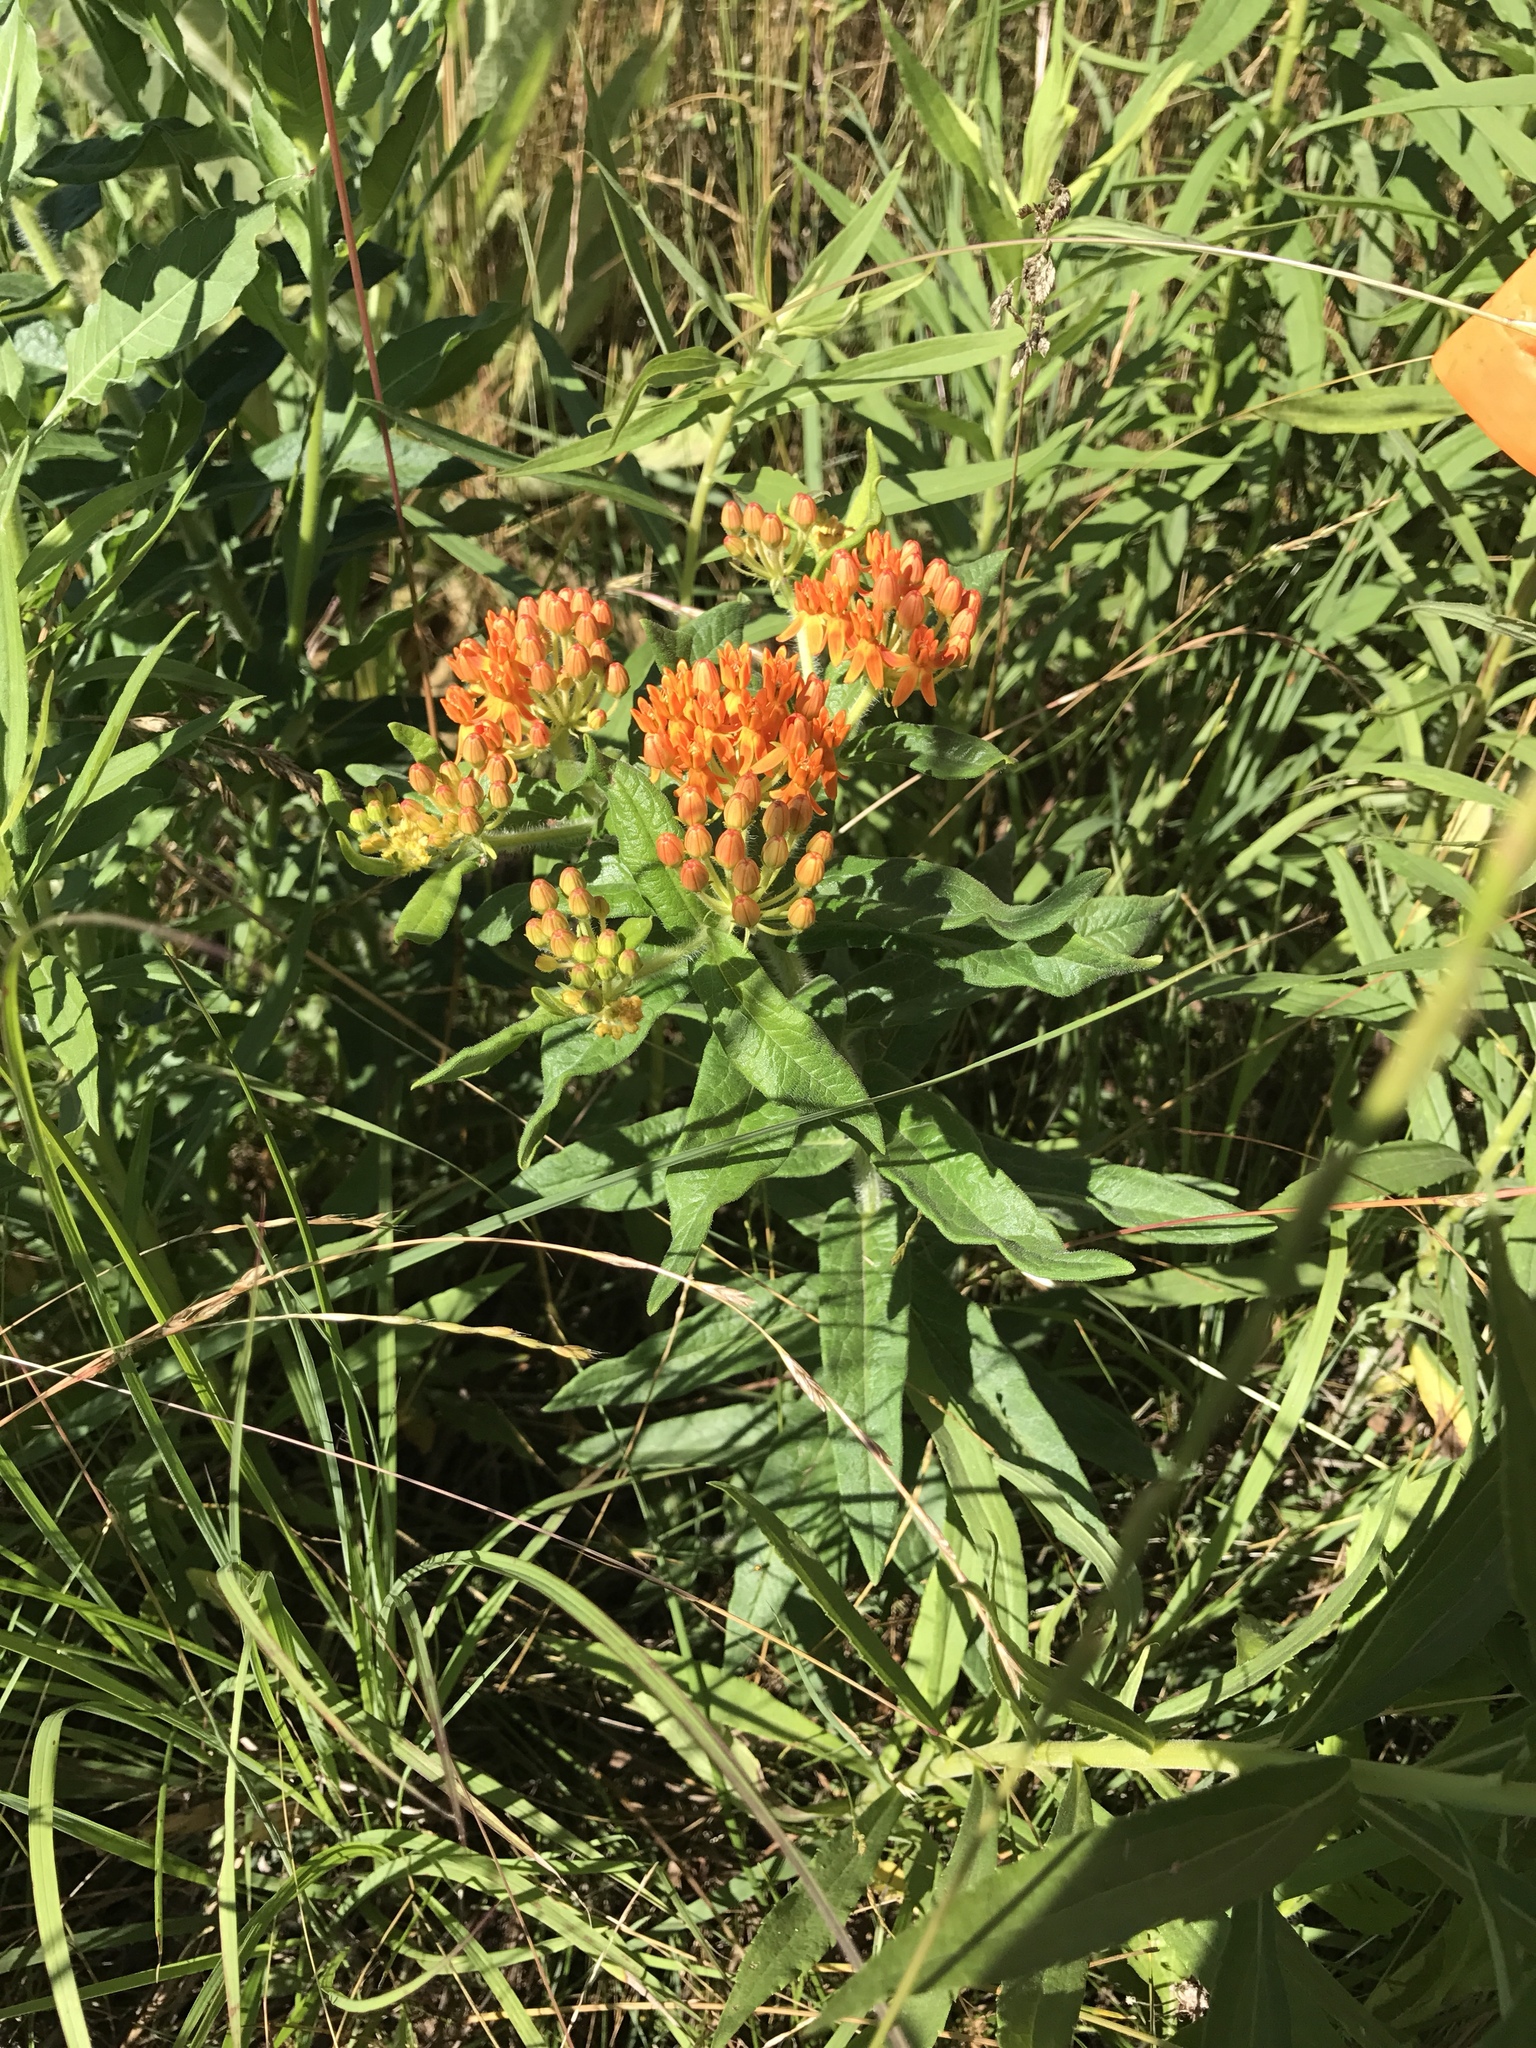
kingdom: Plantae
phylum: Tracheophyta
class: Magnoliopsida
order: Gentianales
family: Apocynaceae
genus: Asclepias
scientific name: Asclepias tuberosa
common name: Butterfly milkweed
